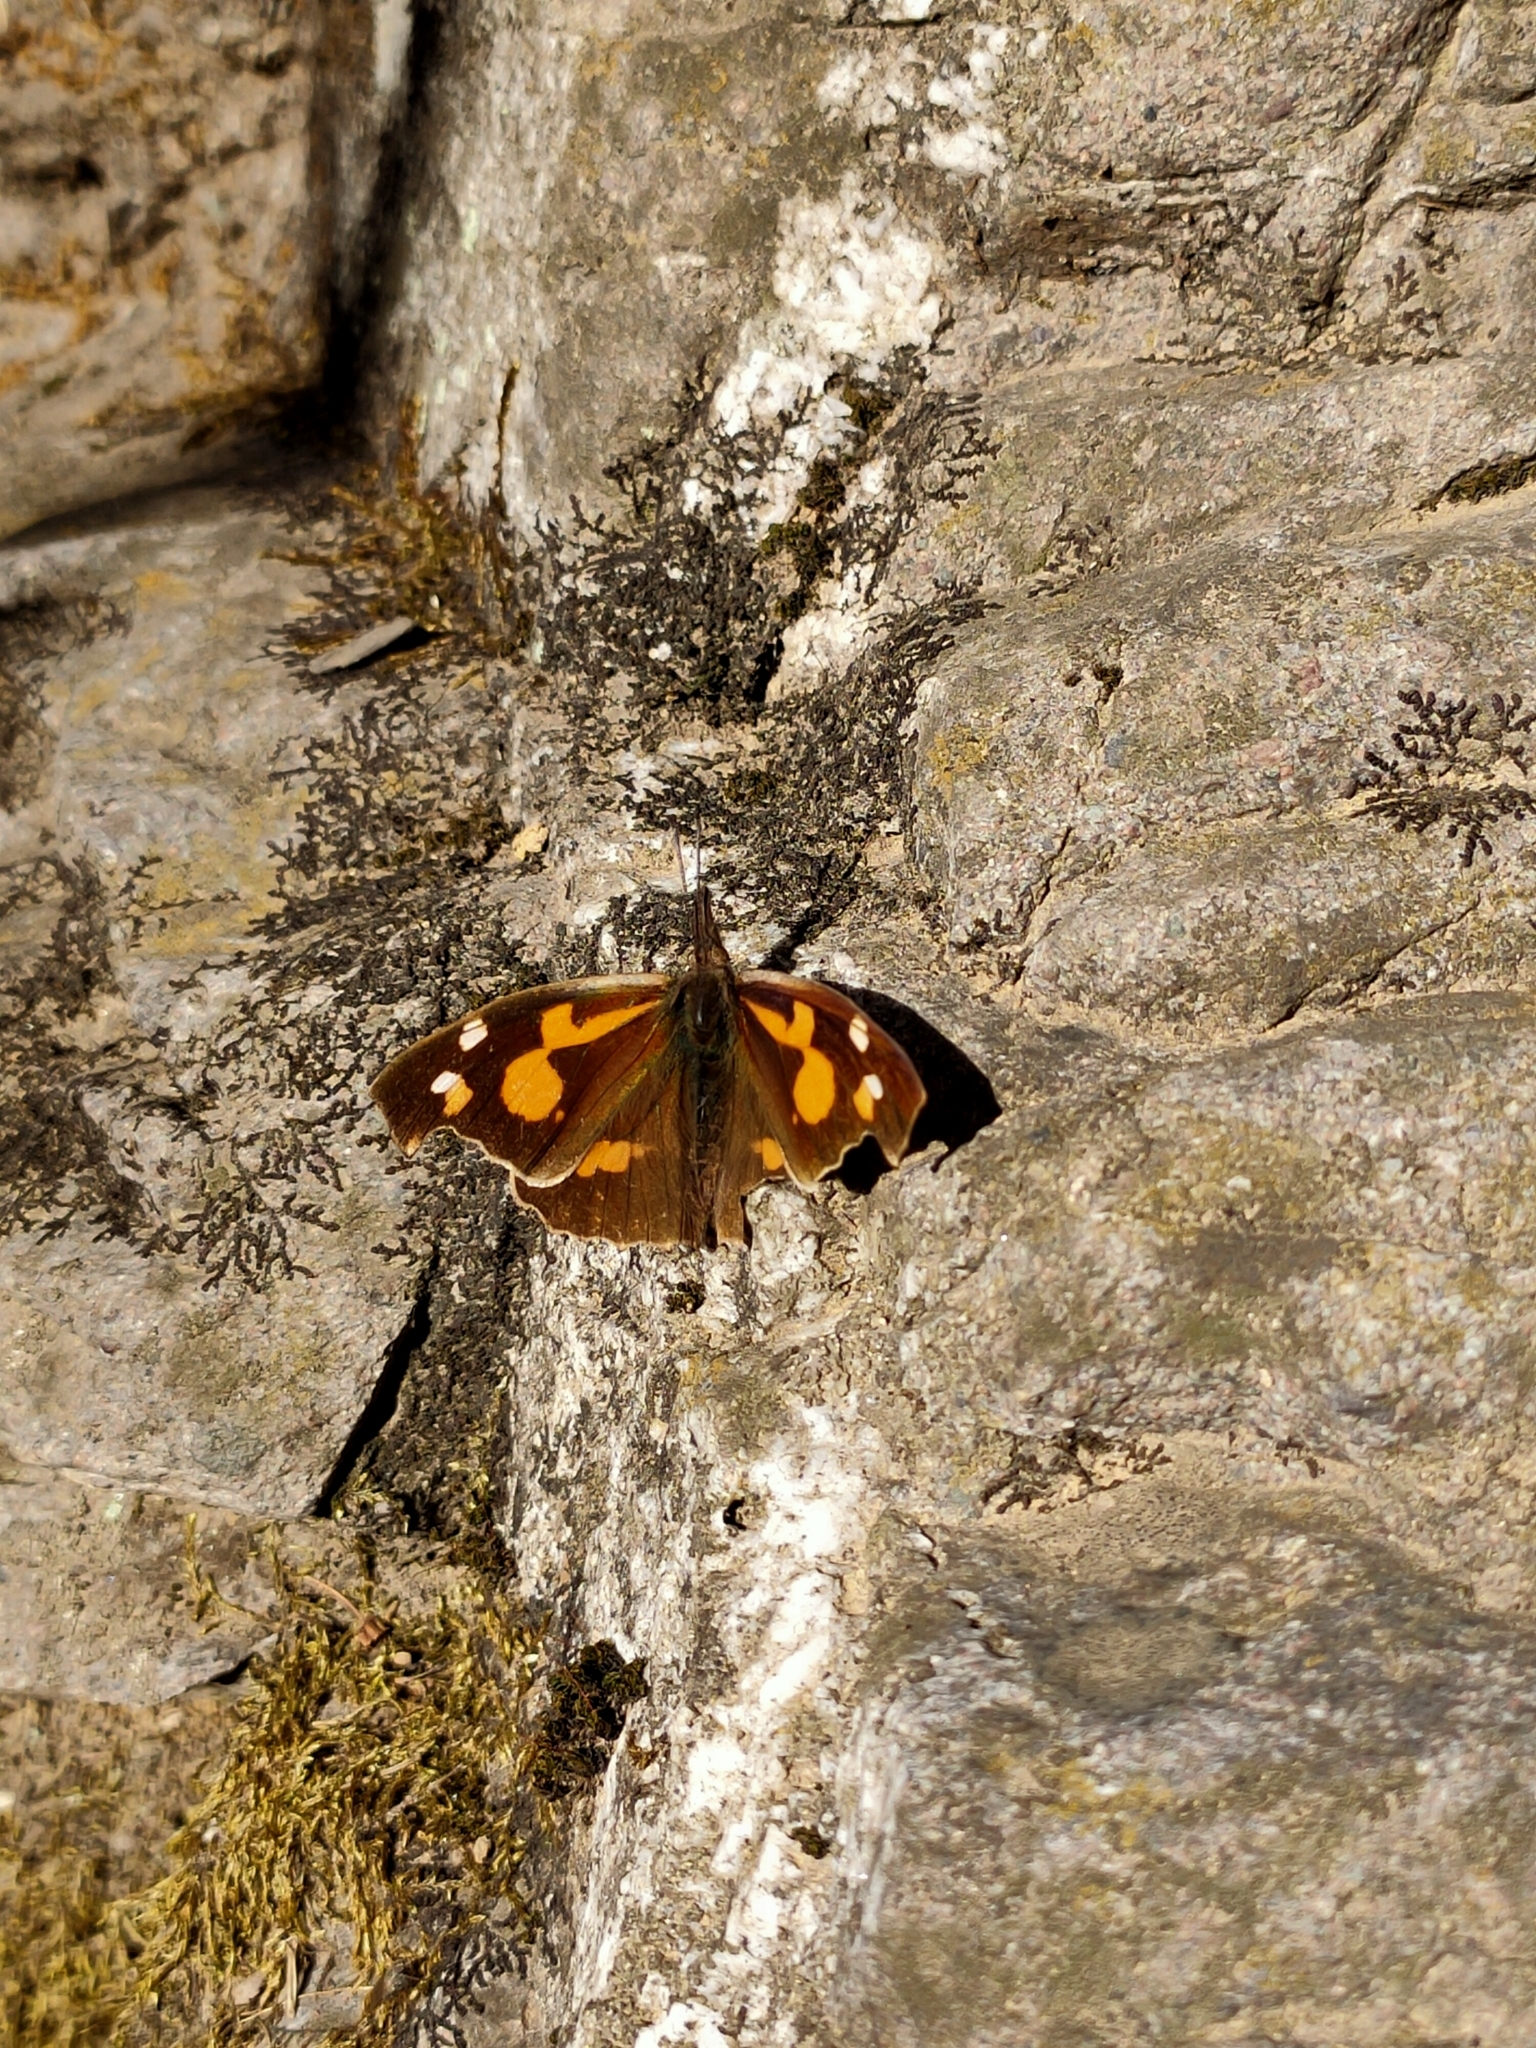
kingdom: Animalia
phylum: Arthropoda
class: Insecta
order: Lepidoptera
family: Nymphalidae
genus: Libythea
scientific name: Libythea lepita
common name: Common beak
